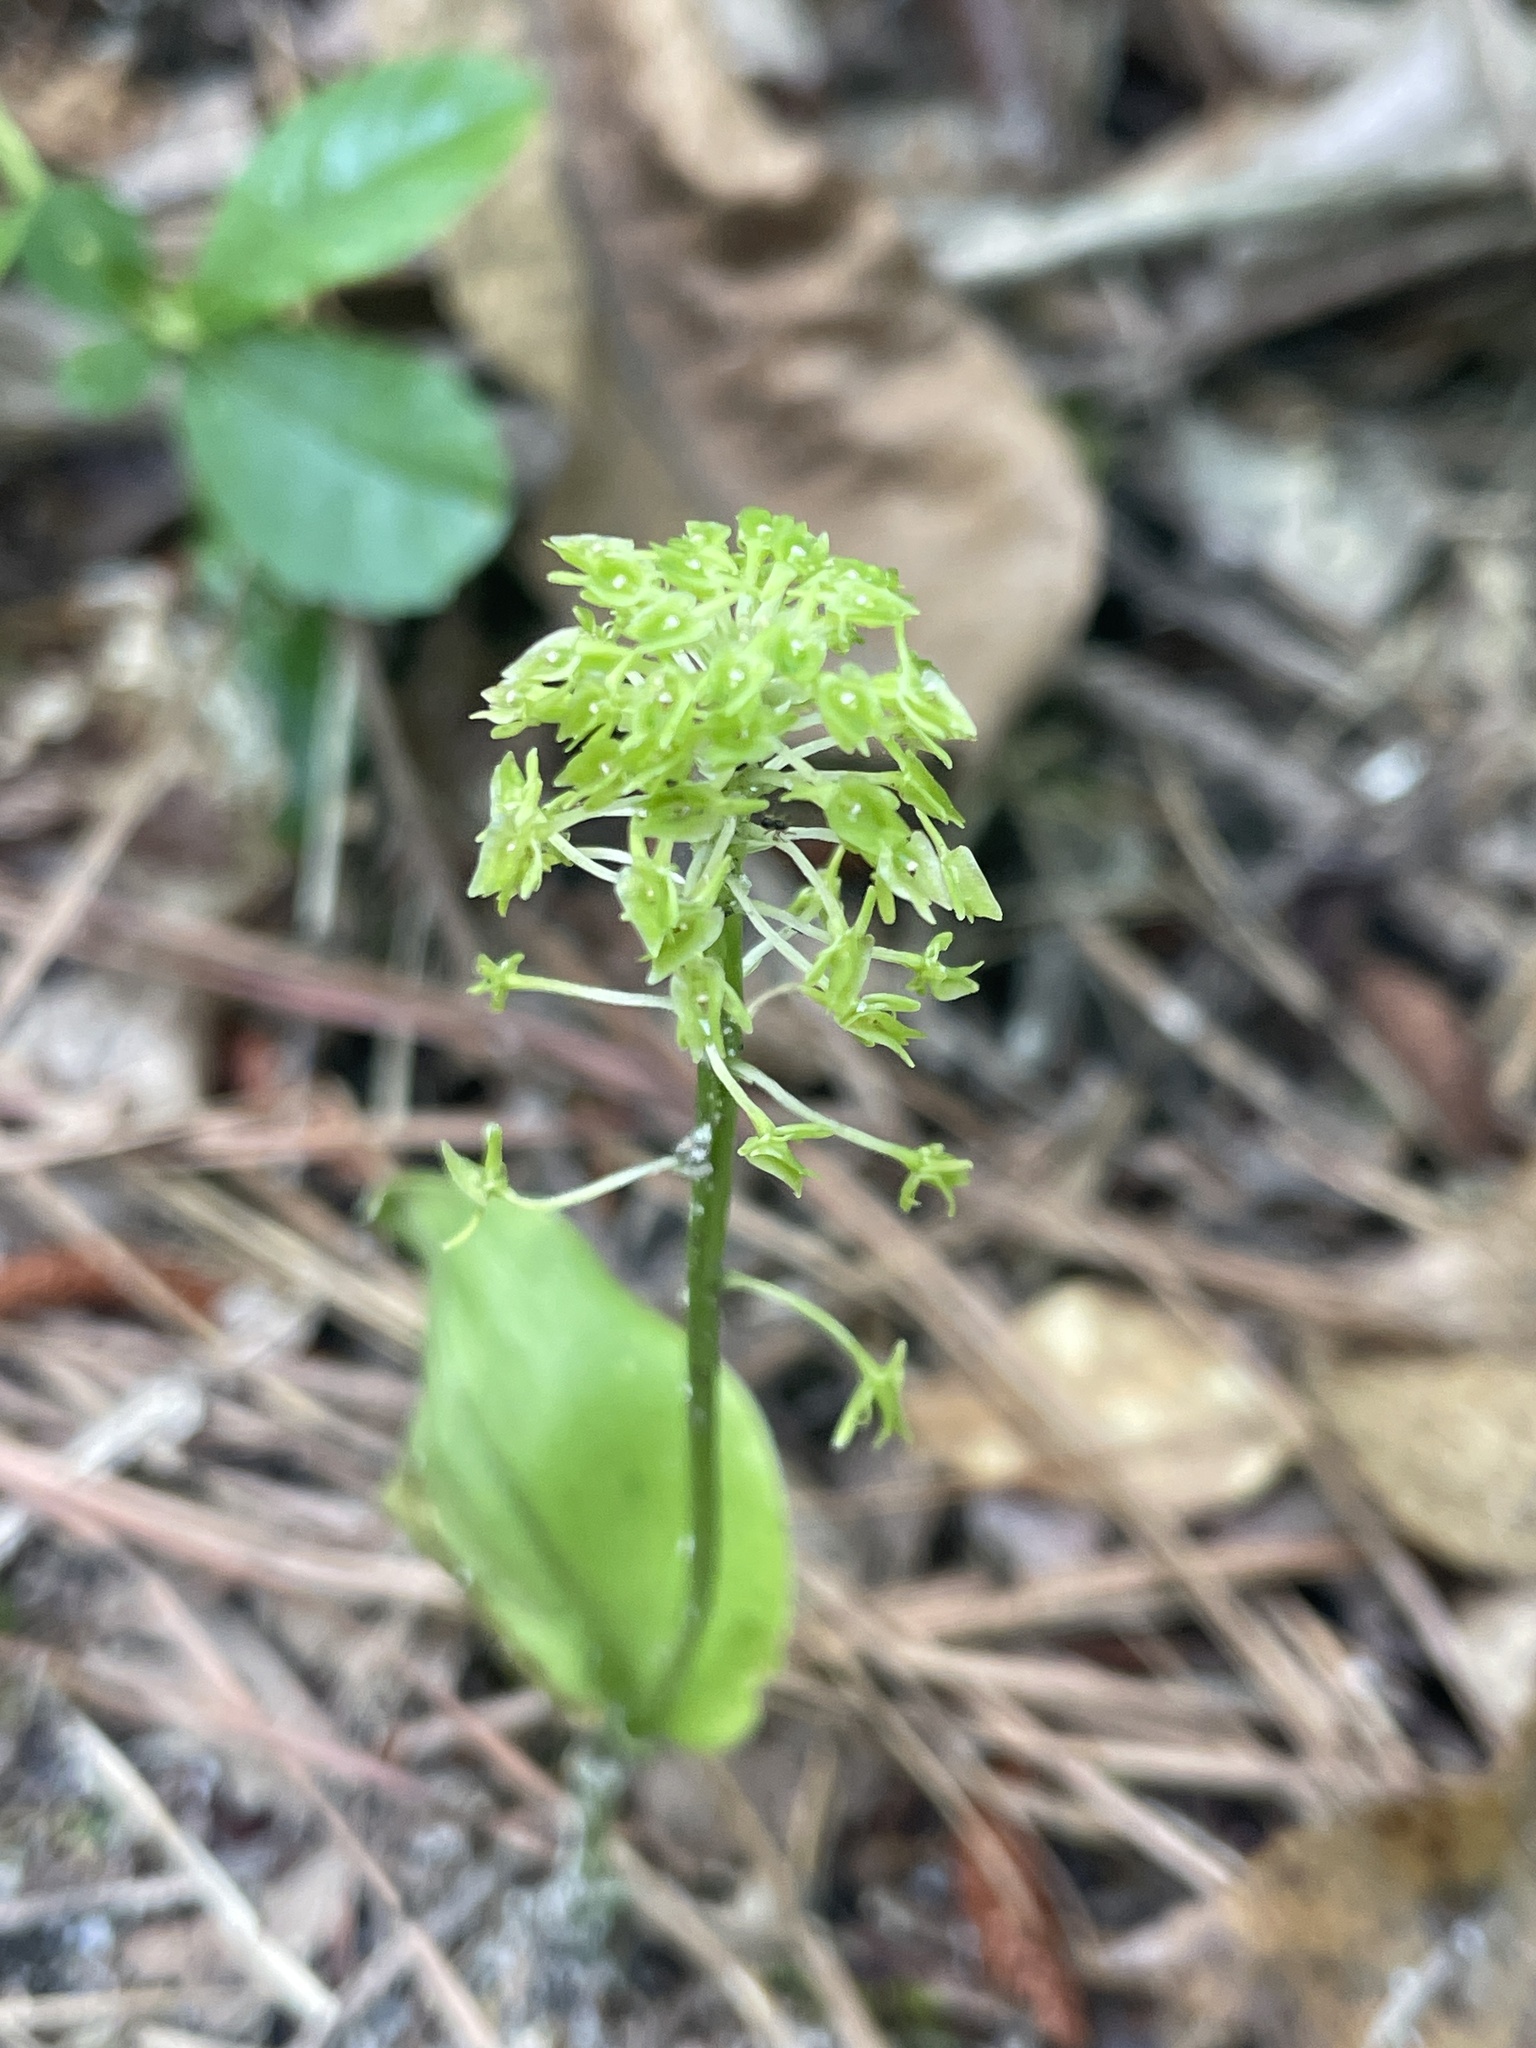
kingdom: Plantae
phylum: Tracheophyta
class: Liliopsida
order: Asparagales
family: Orchidaceae
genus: Malaxis
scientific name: Malaxis unifolia
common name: Green adder's-mouth
